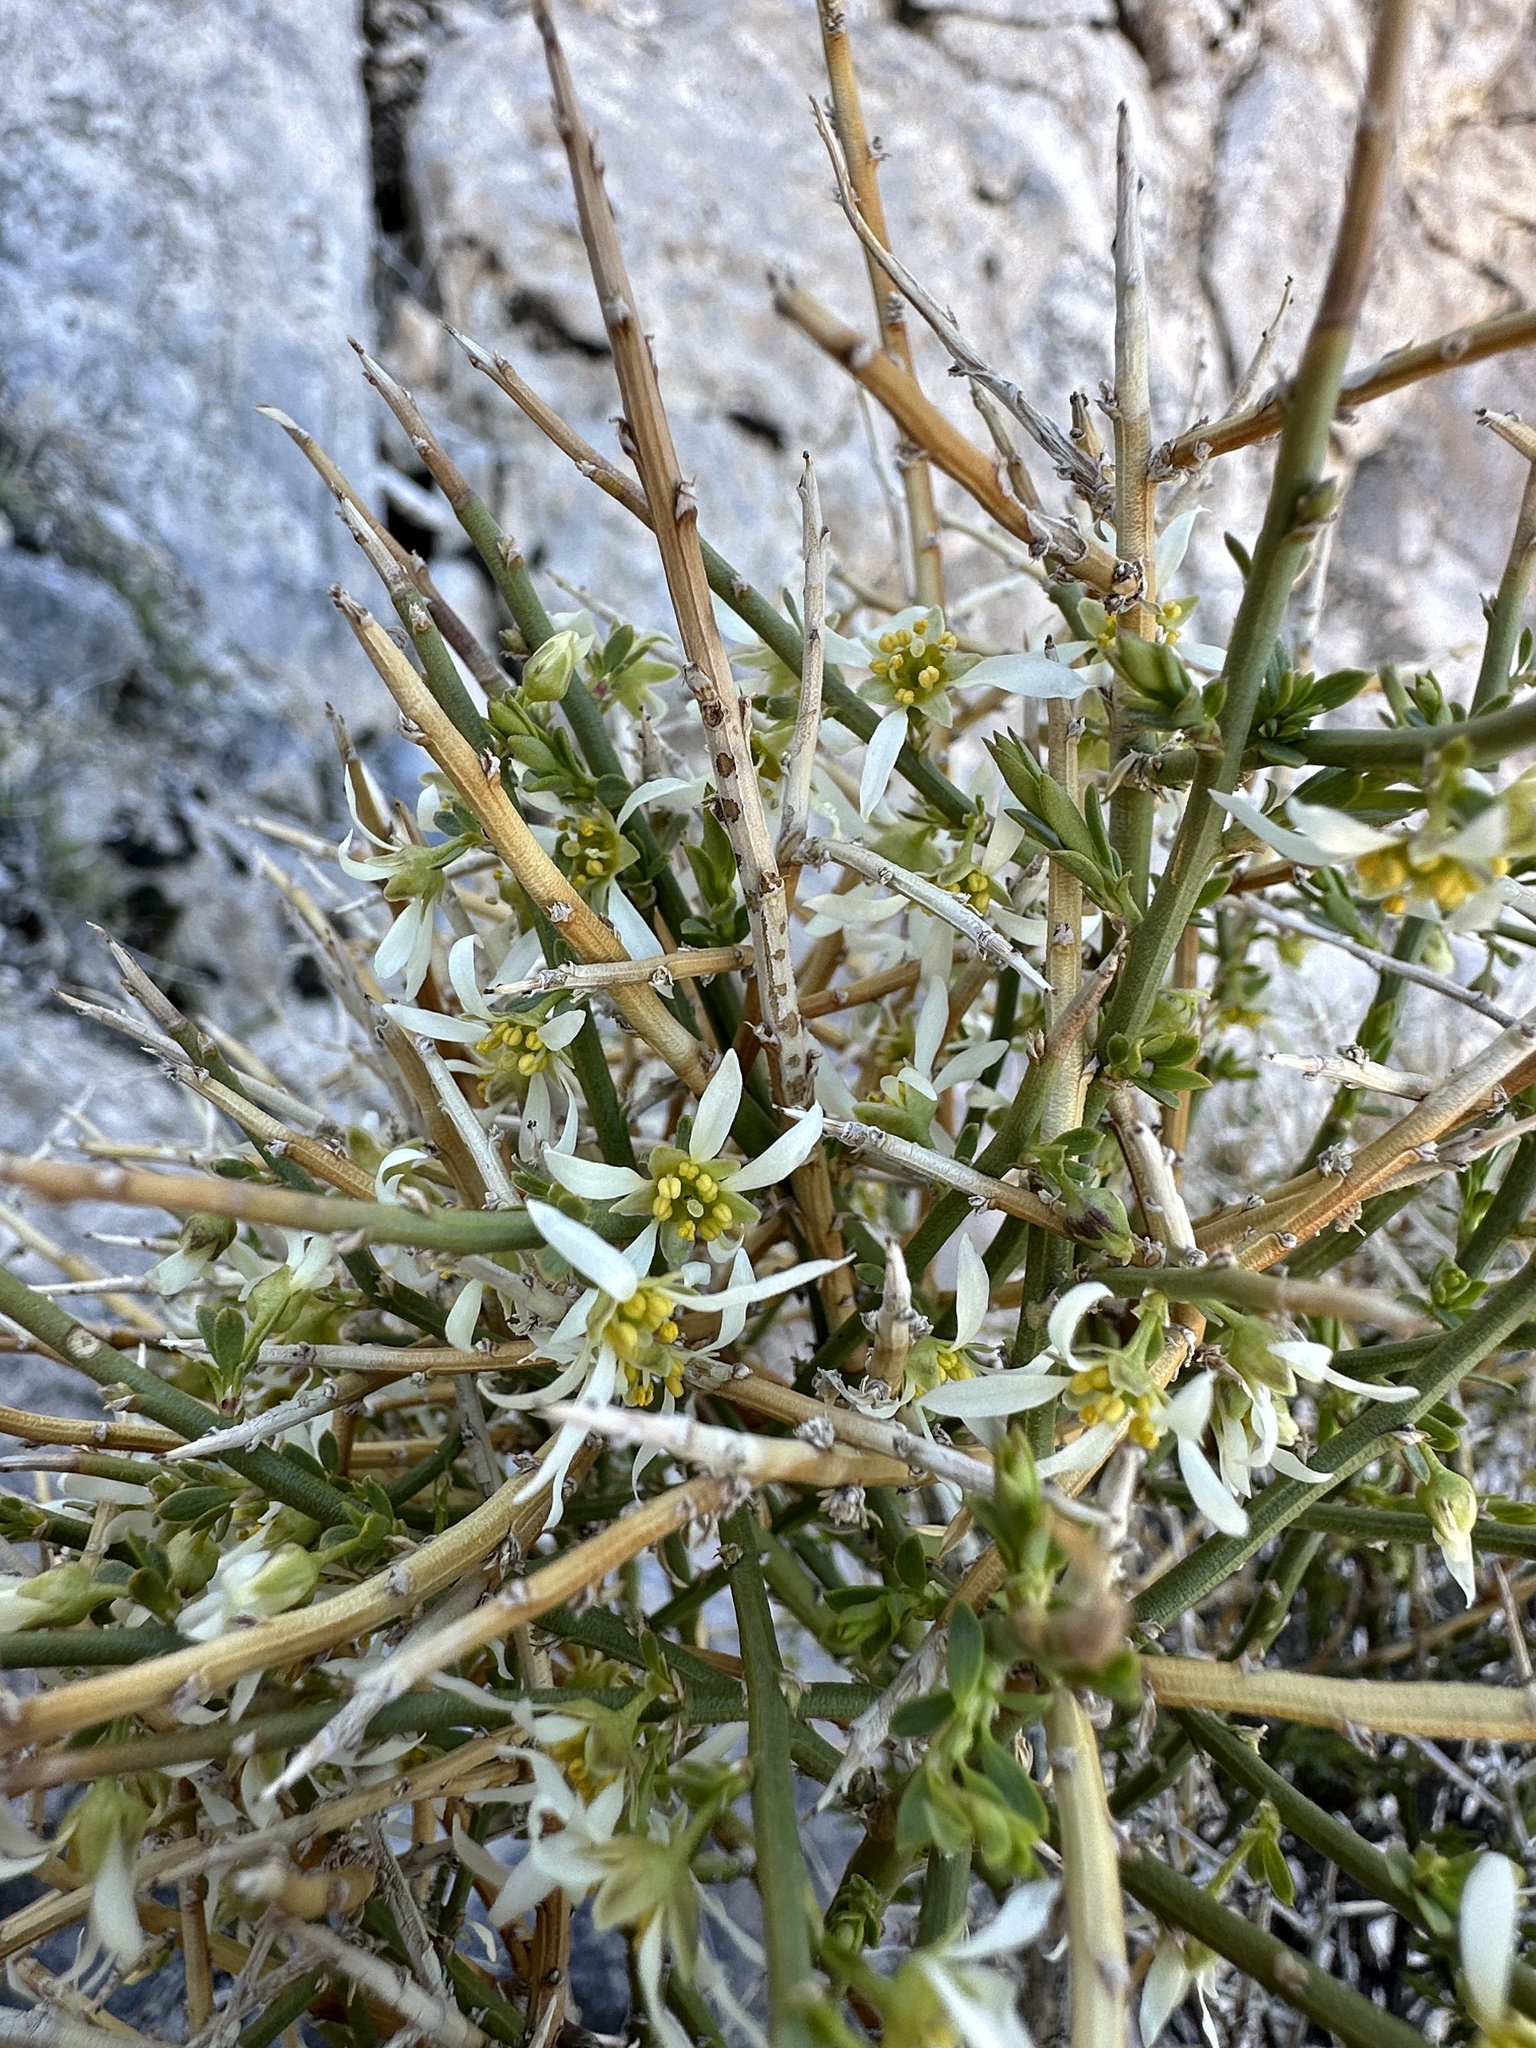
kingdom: Plantae
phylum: Tracheophyta
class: Magnoliopsida
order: Crossosomatales
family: Crossosomataceae
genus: Glossopetalon
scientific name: Glossopetalon spinescens
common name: Spring greasebush
